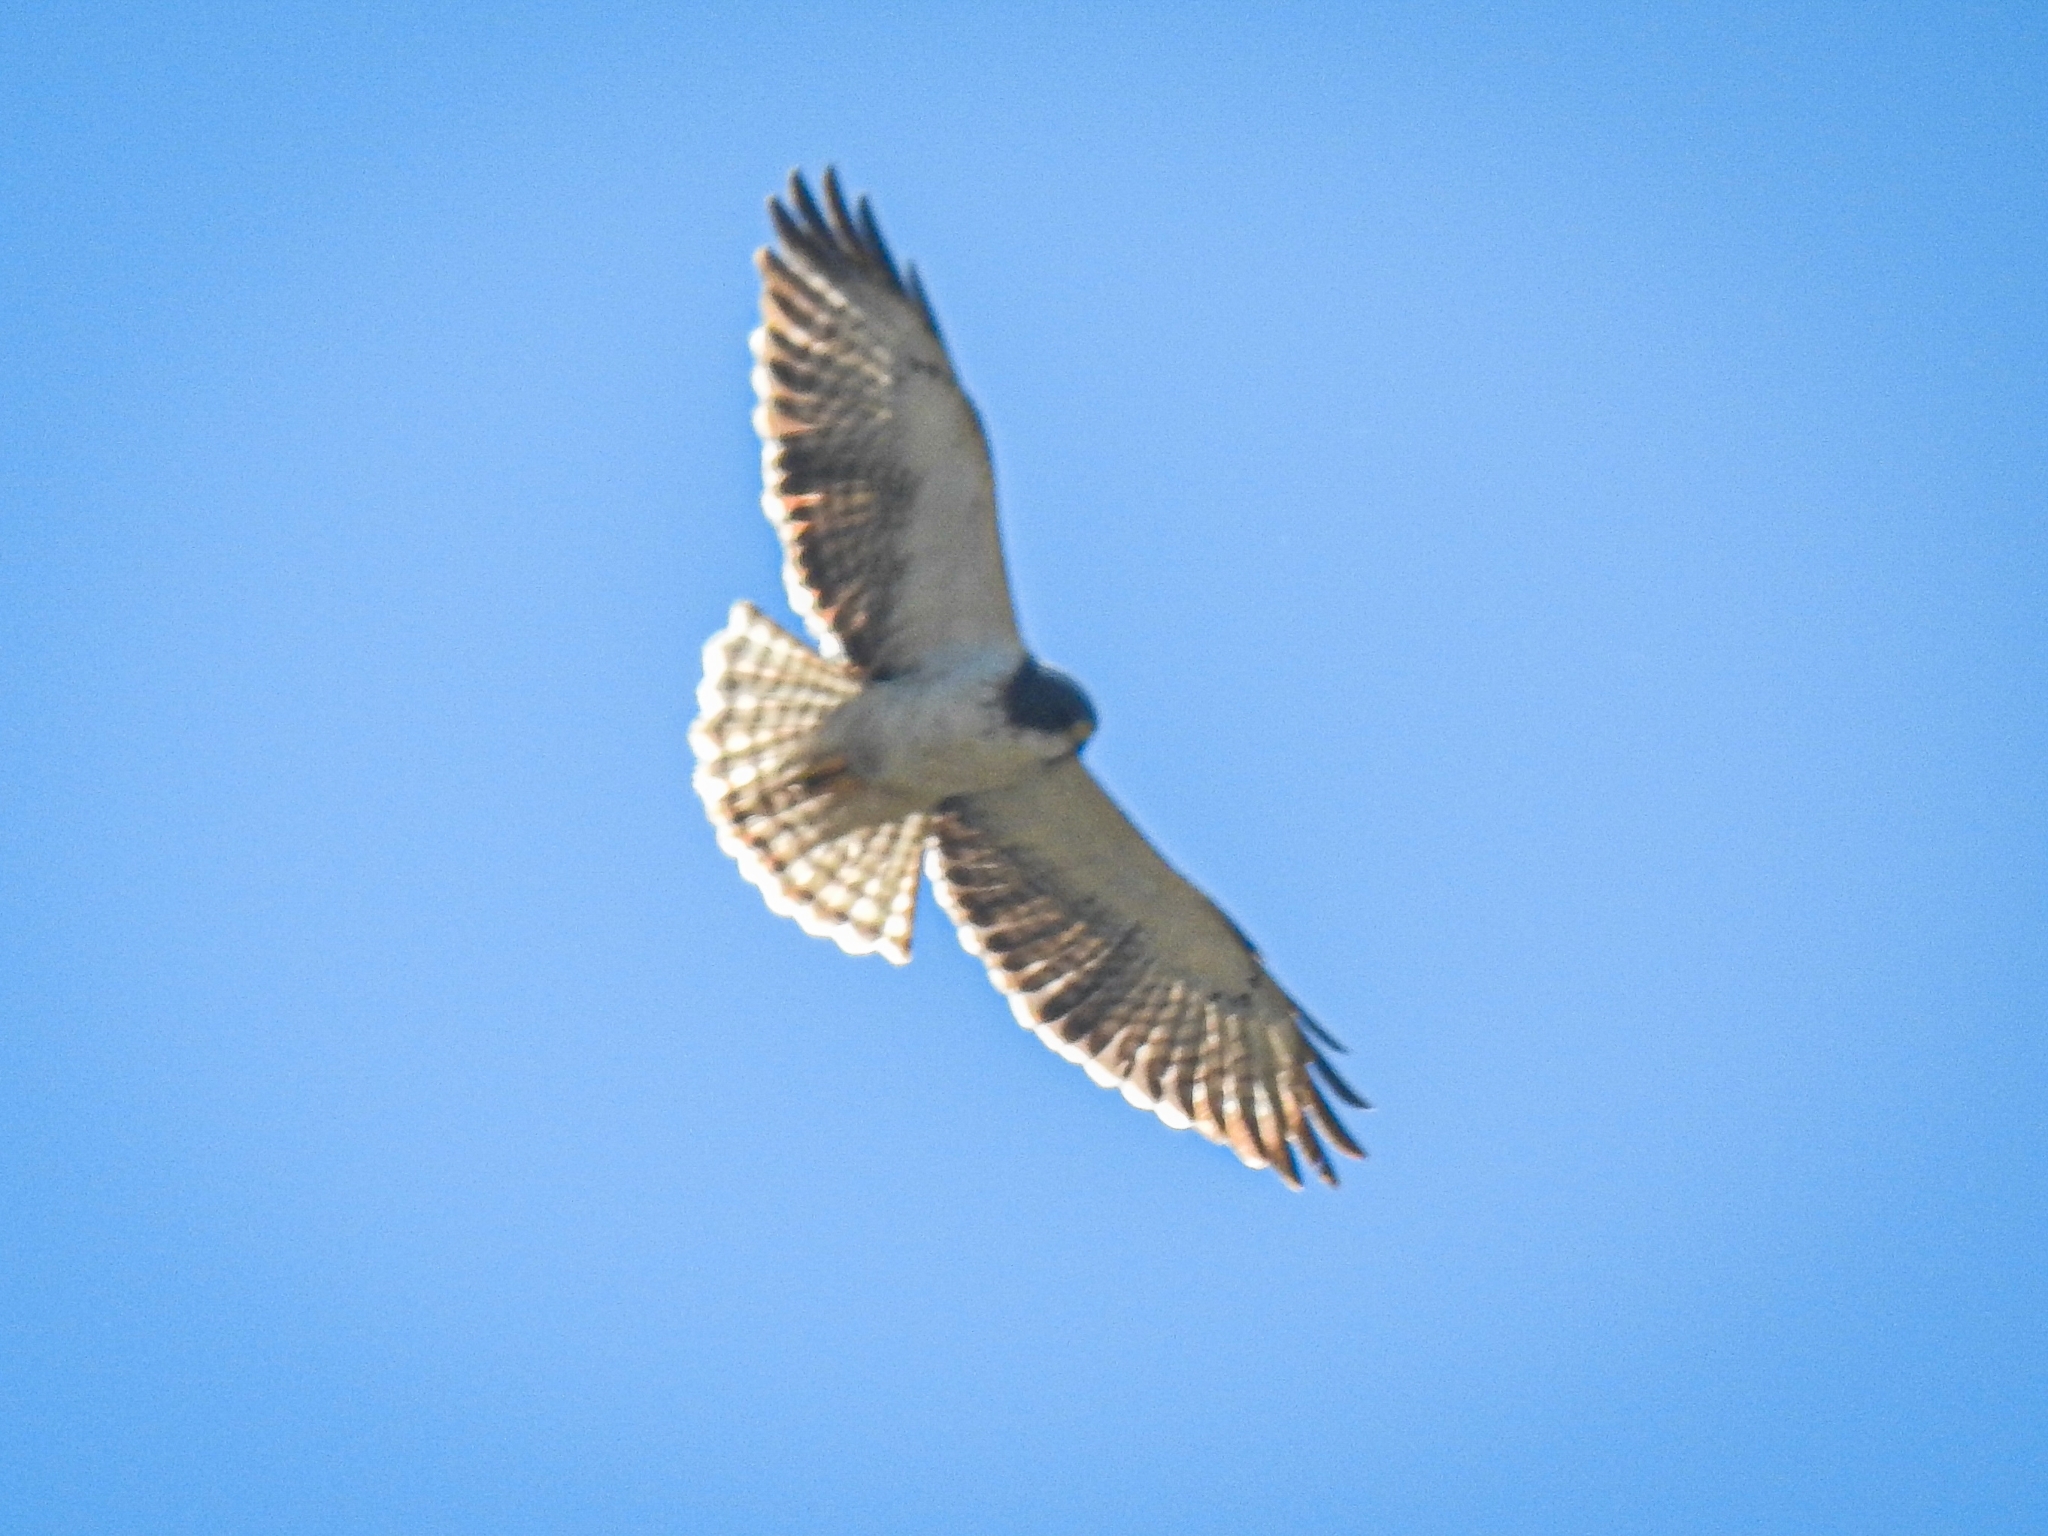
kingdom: Animalia
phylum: Chordata
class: Aves
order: Accipitriformes
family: Accipitridae
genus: Buteo
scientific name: Buteo brachyurus
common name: Short-tailed hawk
